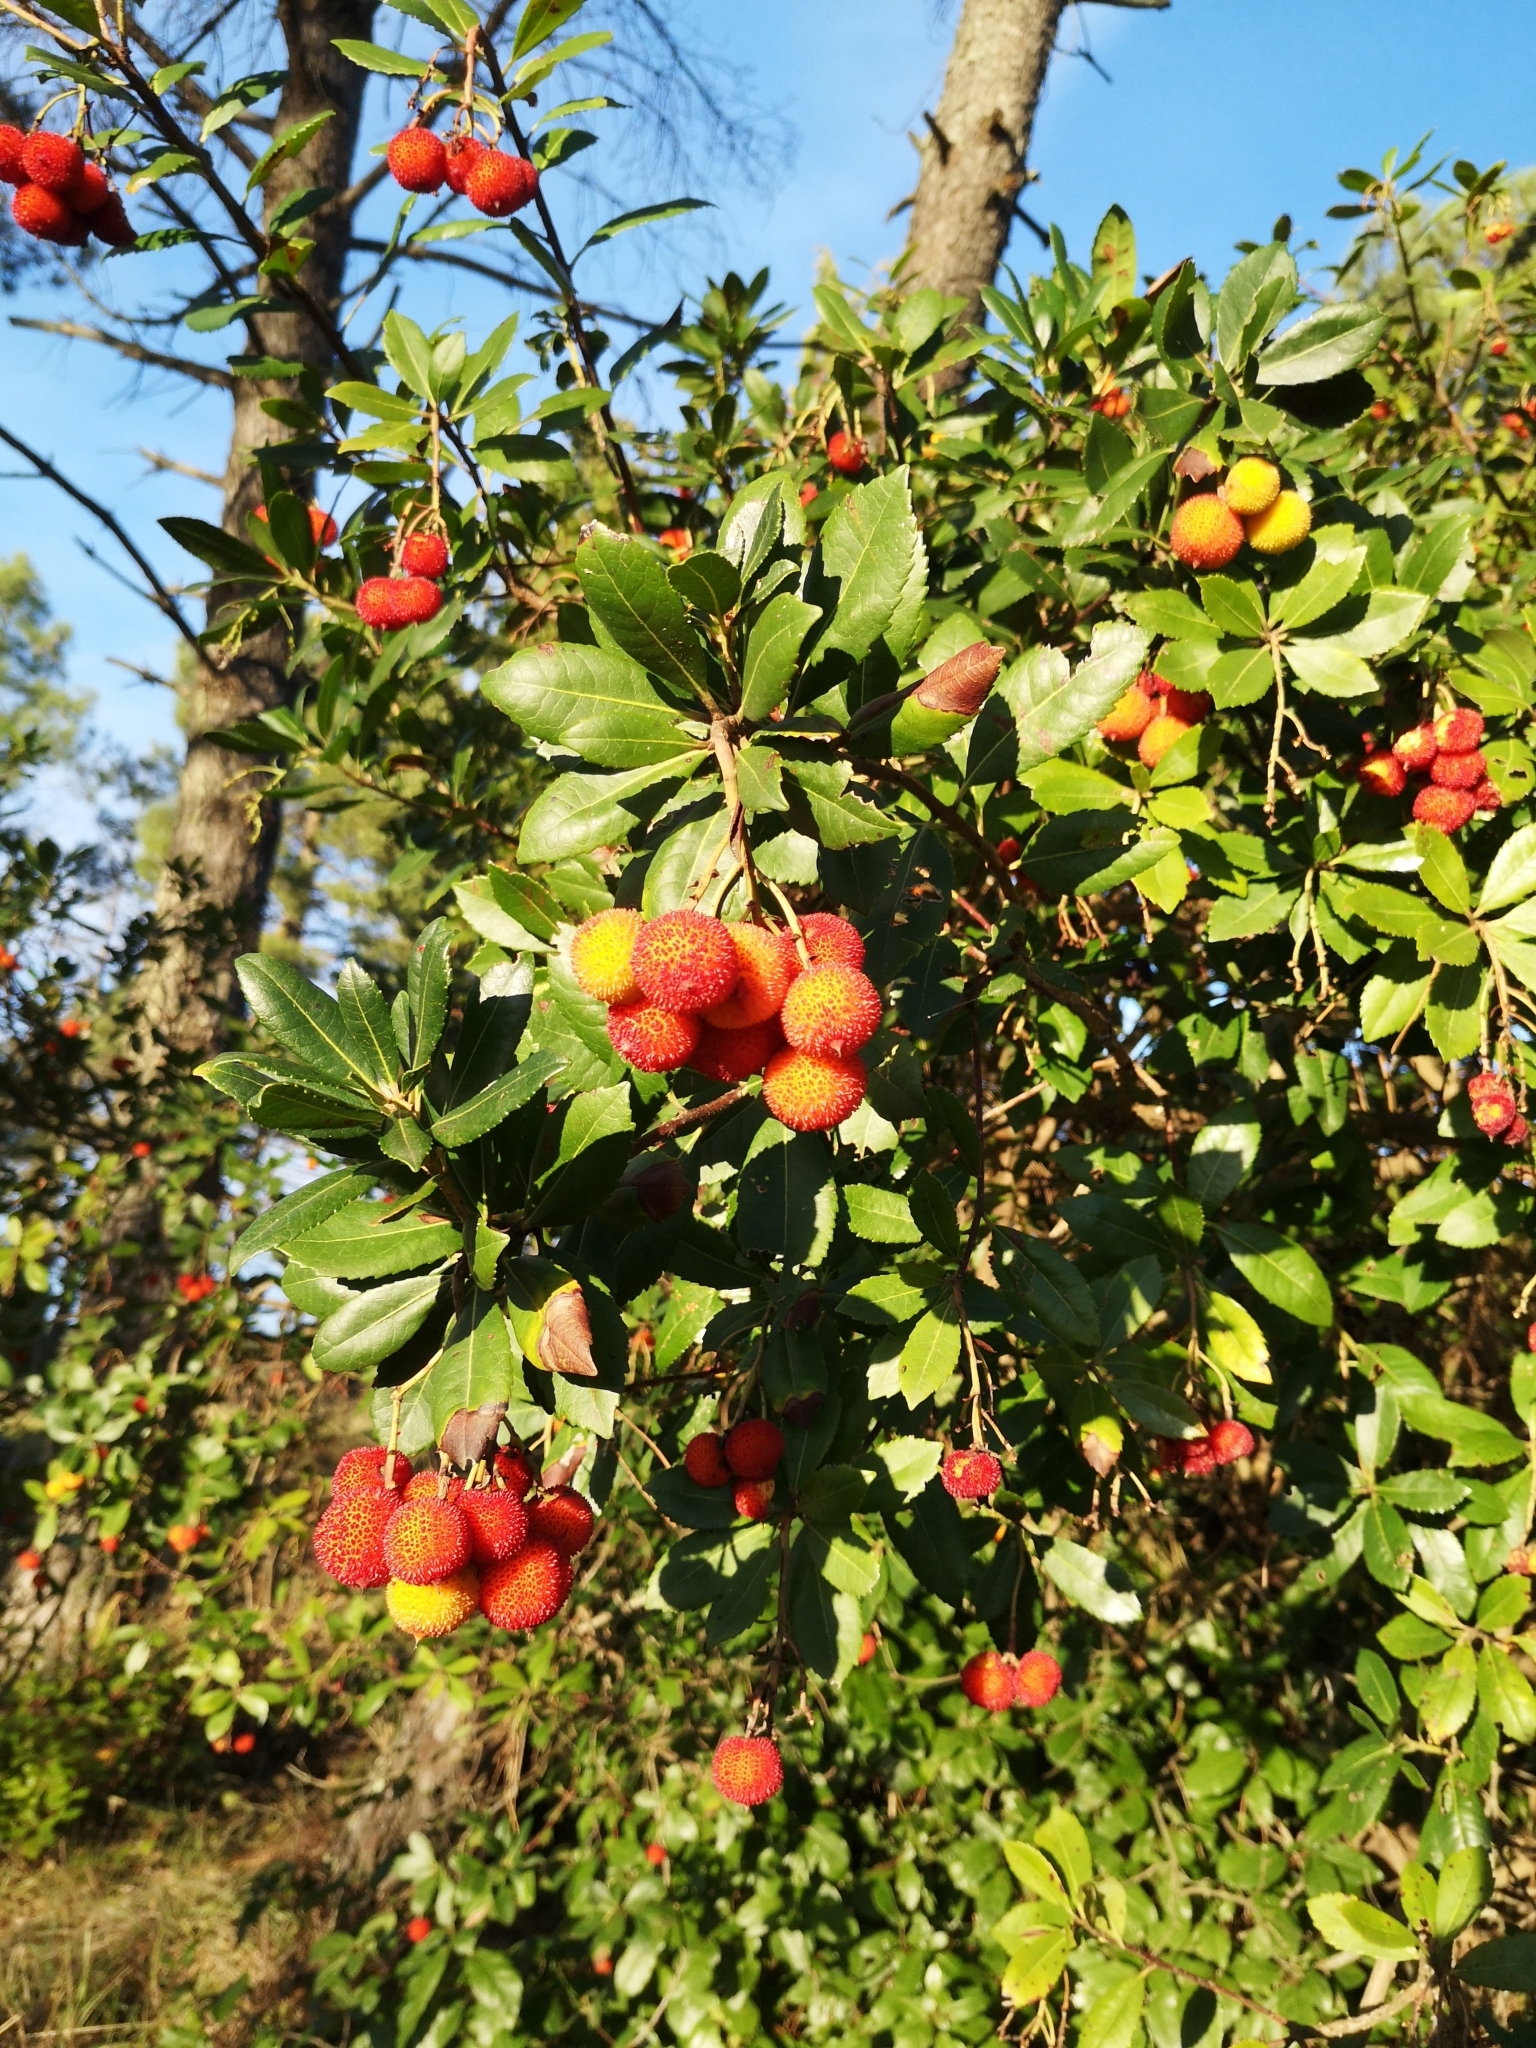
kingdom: Plantae
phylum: Tracheophyta
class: Magnoliopsida
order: Ericales
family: Ericaceae
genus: Arbutus
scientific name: Arbutus unedo
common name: Strawberry-tree
